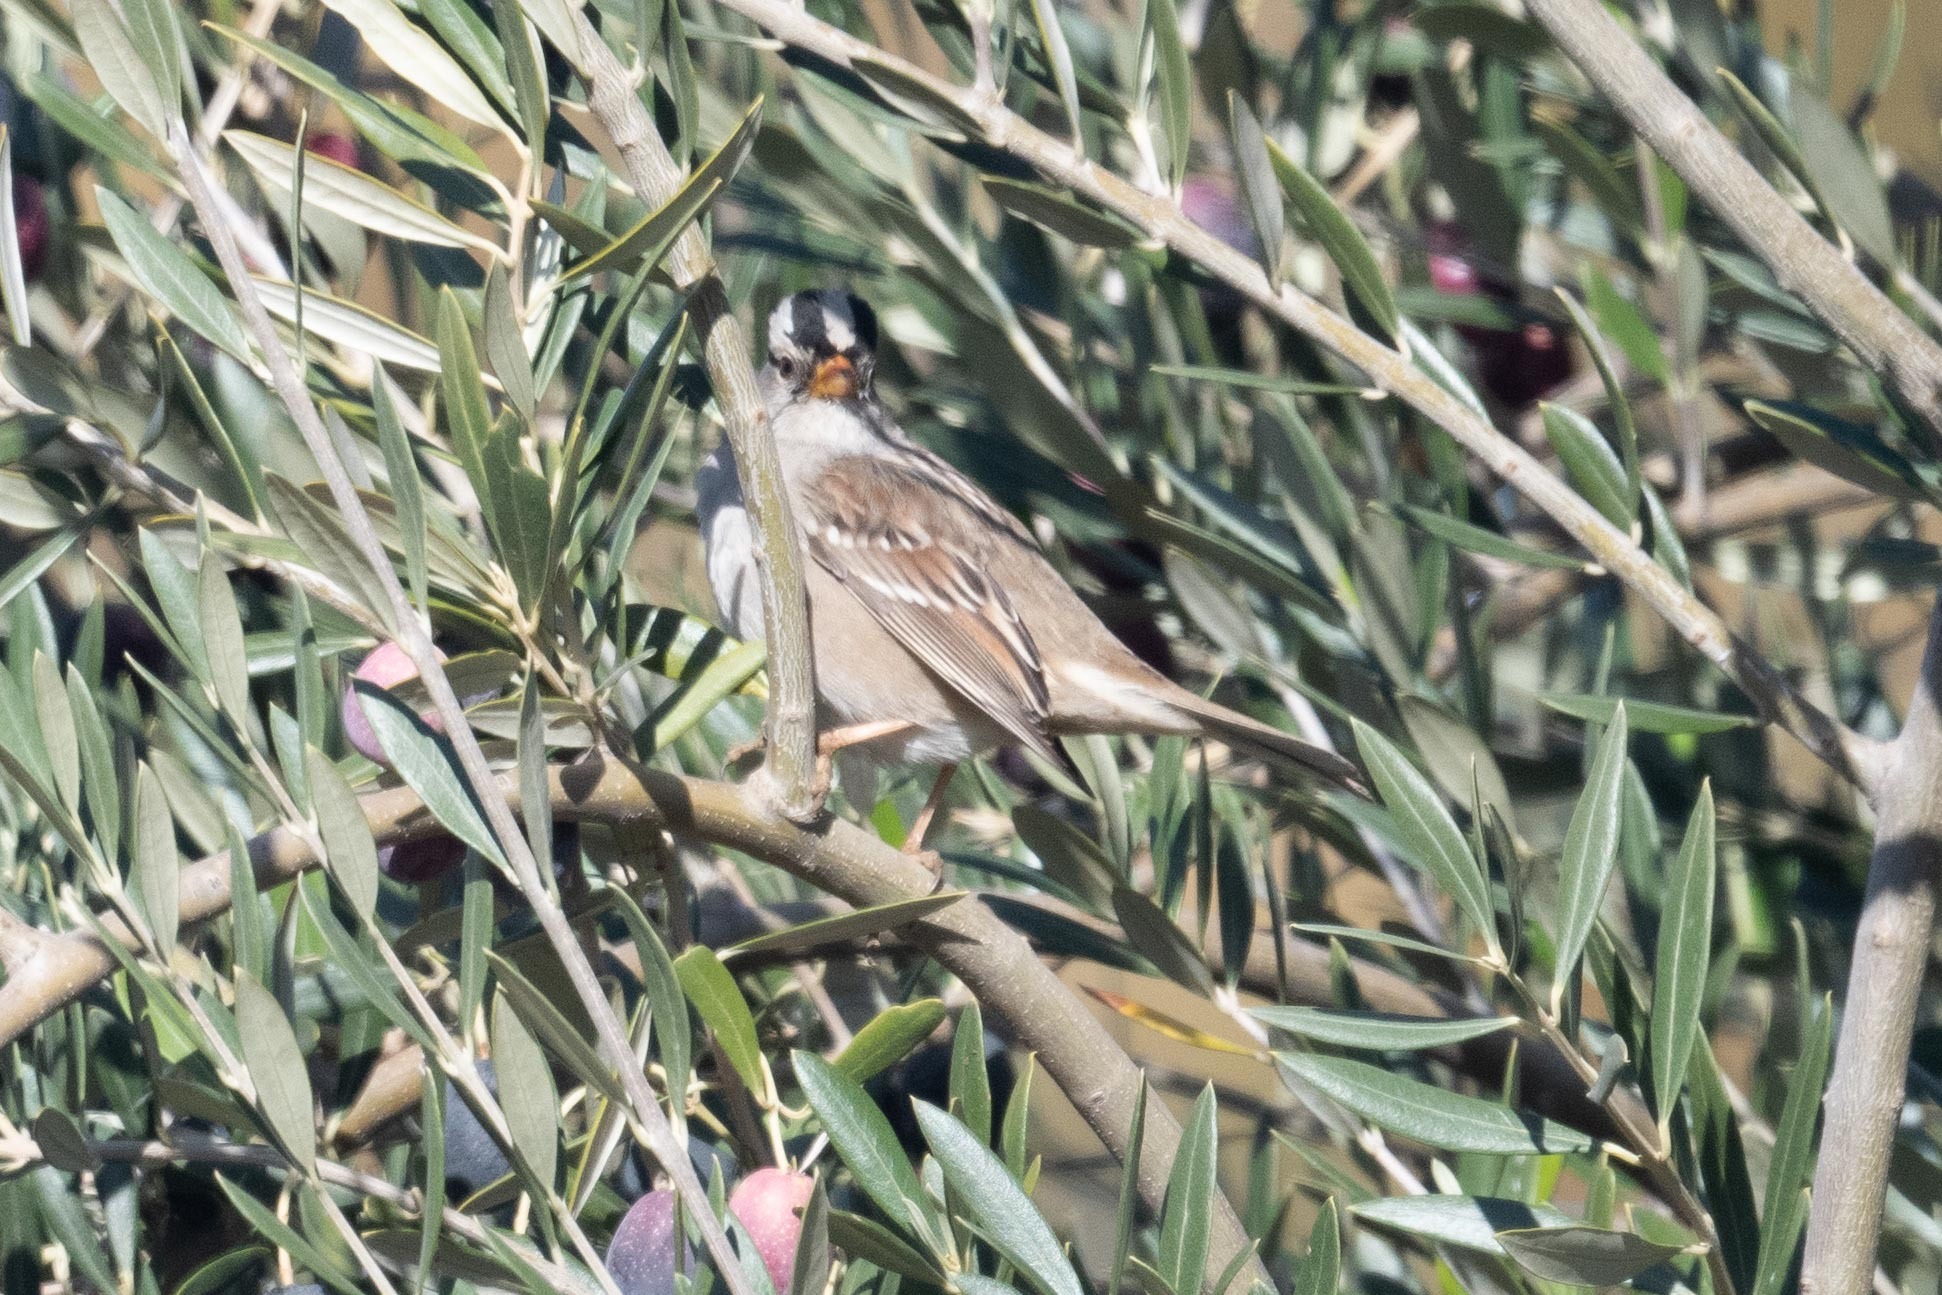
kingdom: Animalia
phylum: Chordata
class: Aves
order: Passeriformes
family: Passerellidae
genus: Zonotrichia
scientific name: Zonotrichia leucophrys
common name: White-crowned sparrow
